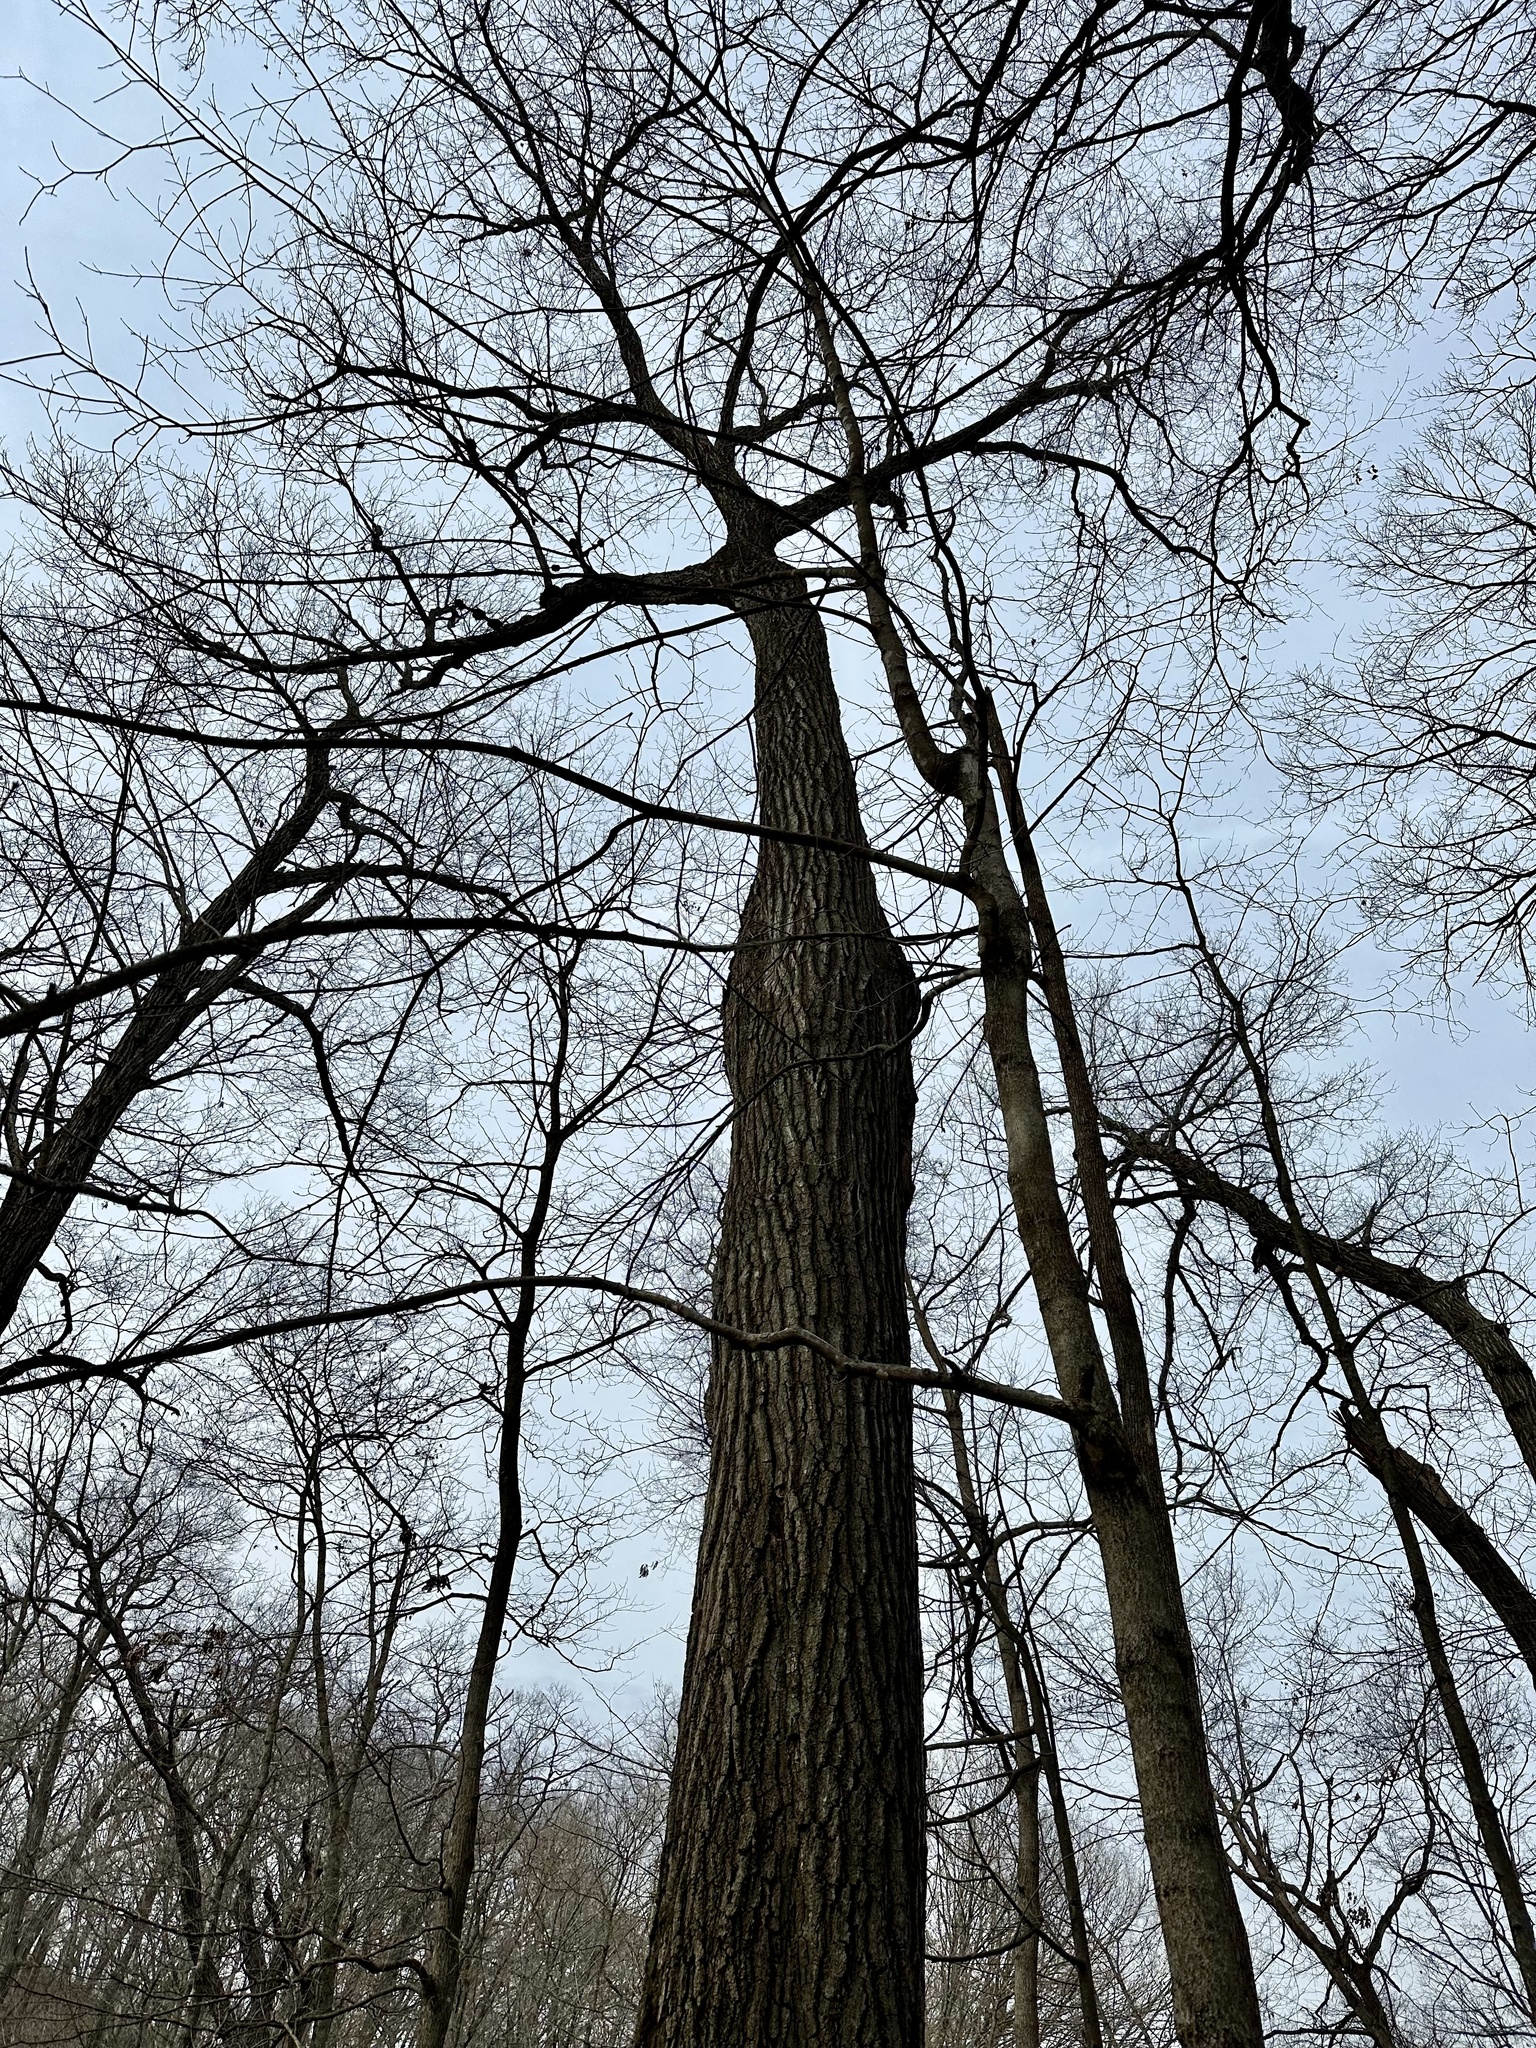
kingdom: Plantae
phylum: Tracheophyta
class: Magnoliopsida
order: Fagales
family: Fagaceae
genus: Quercus
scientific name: Quercus rubra
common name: Red oak
